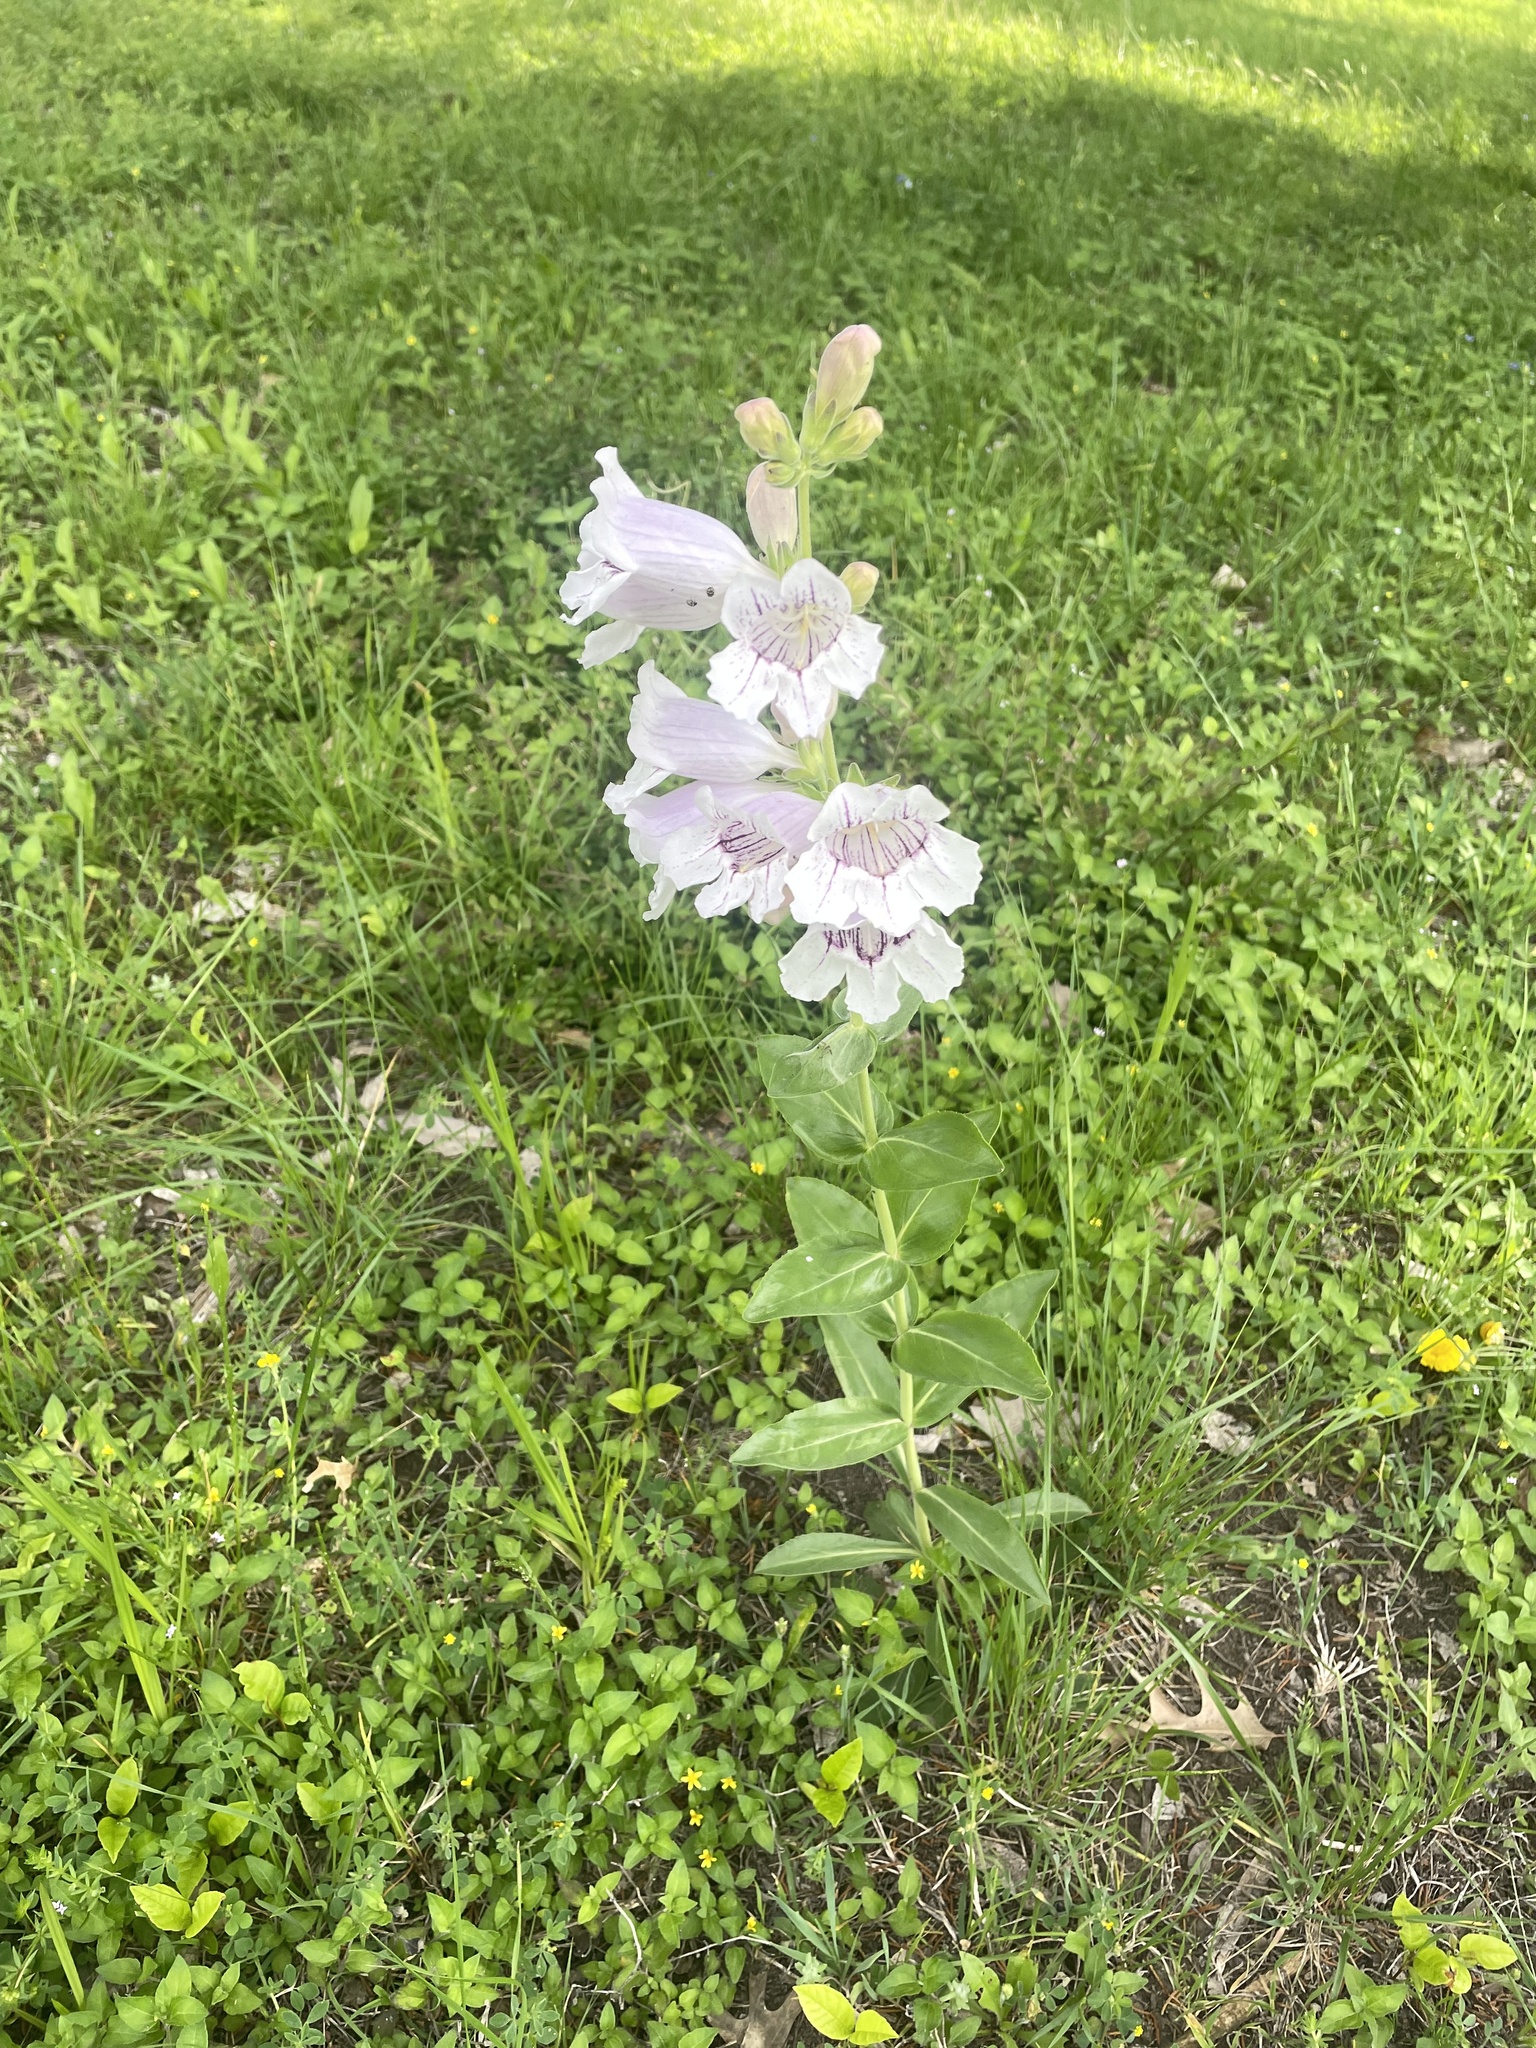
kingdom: Plantae
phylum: Tracheophyta
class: Magnoliopsida
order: Lamiales
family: Plantaginaceae
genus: Penstemon
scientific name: Penstemon cobaea
